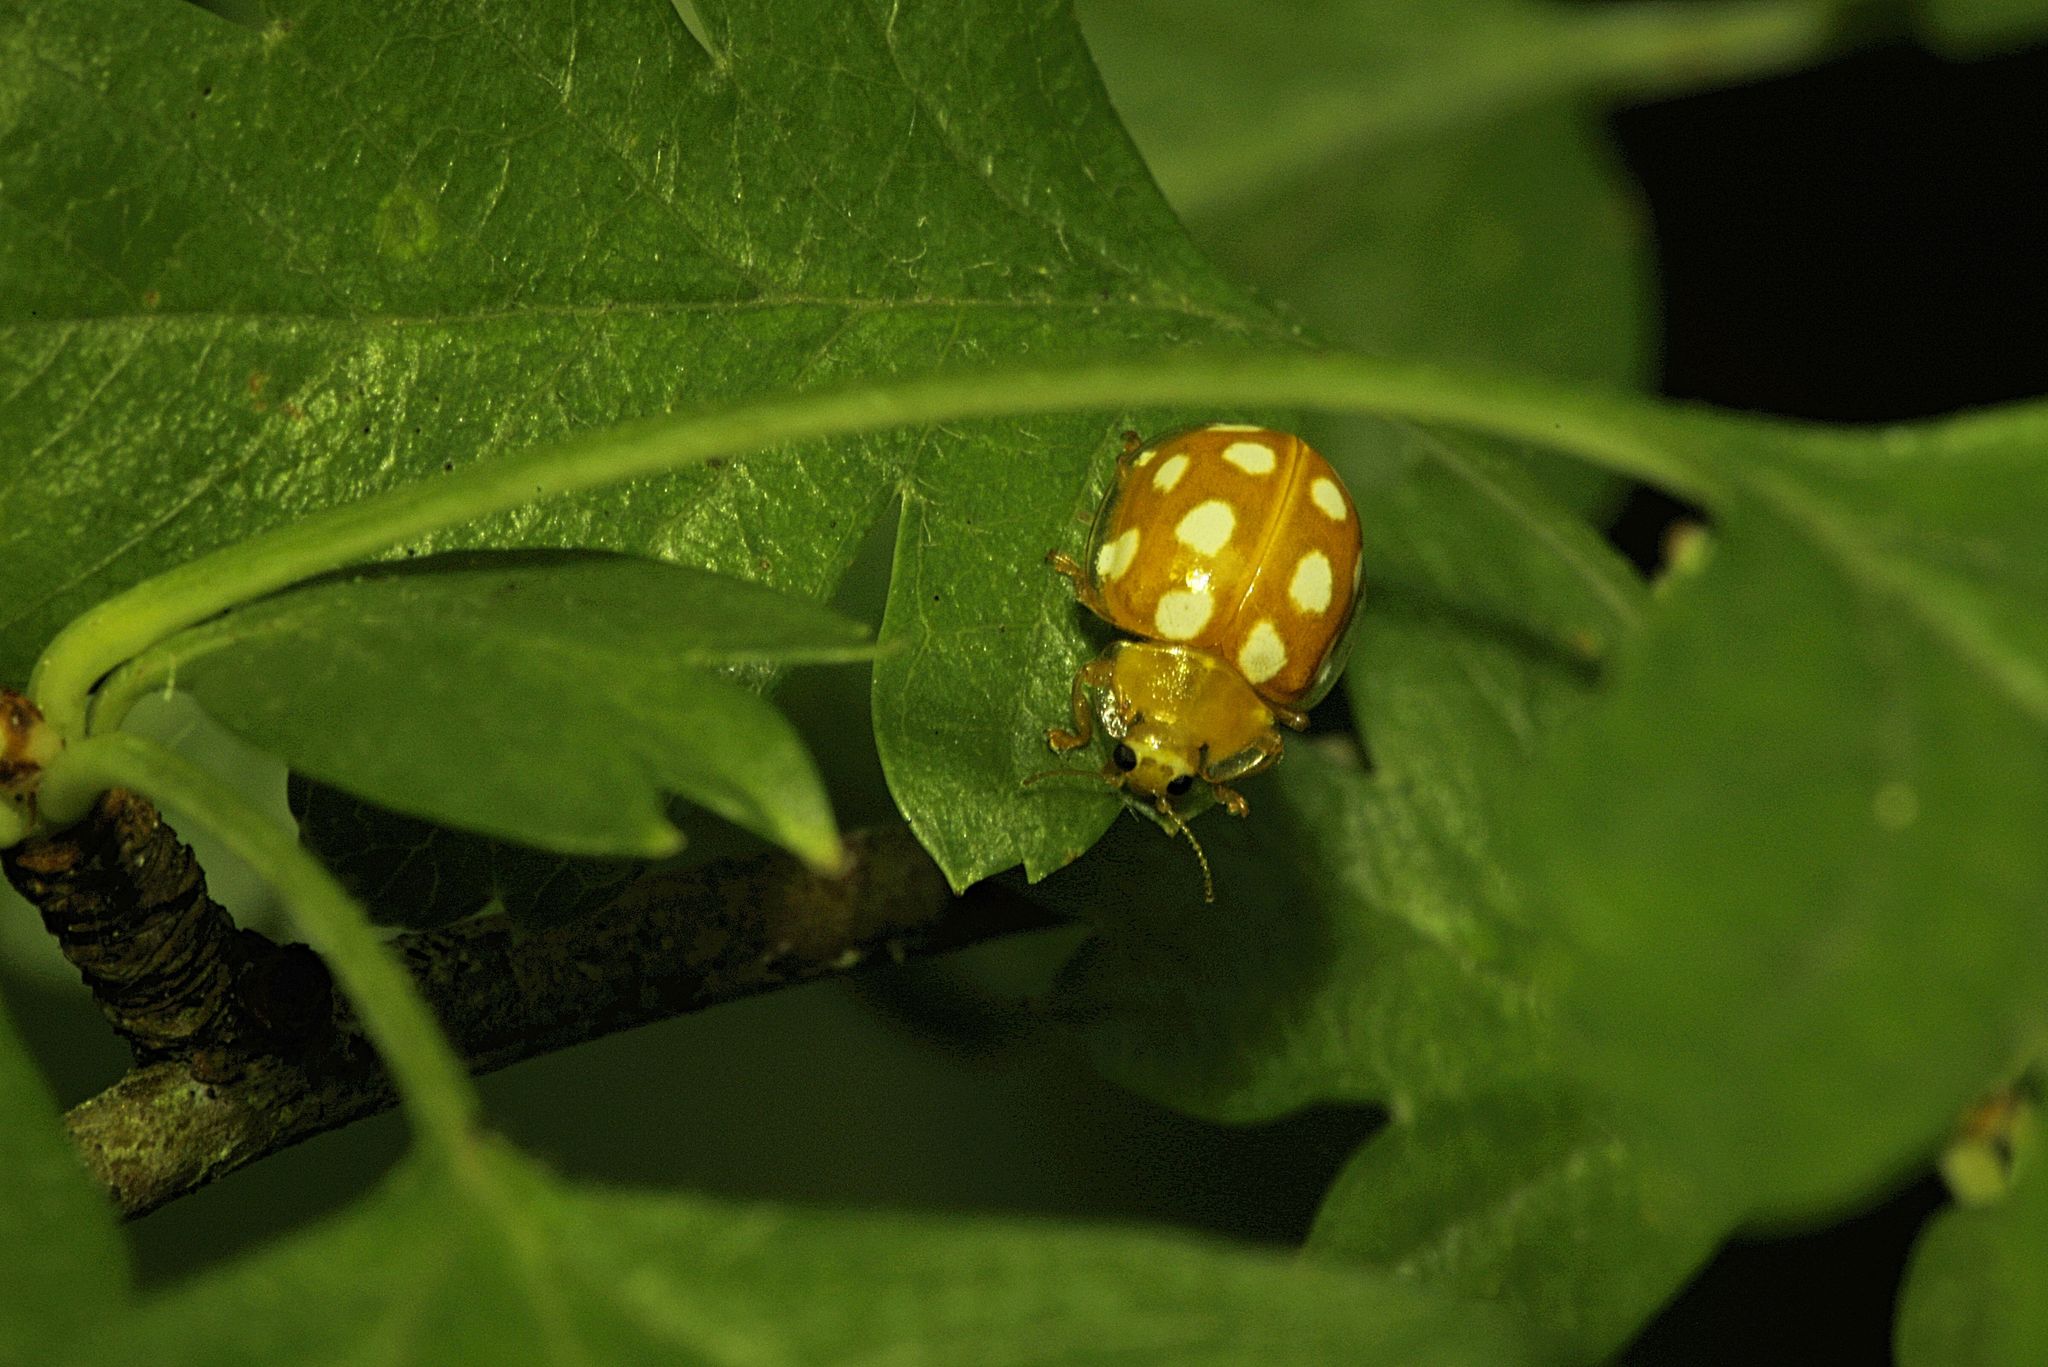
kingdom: Animalia
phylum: Arthropoda
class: Insecta
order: Coleoptera
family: Coccinellidae
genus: Halyzia
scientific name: Halyzia sedecimguttata
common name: Orange ladybird
